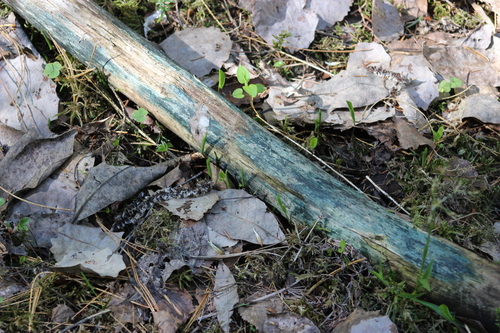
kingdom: Fungi
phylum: Ascomycota
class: Leotiomycetes
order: Helotiales
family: Chlorociboriaceae
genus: Chlorociboria
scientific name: Chlorociboria
